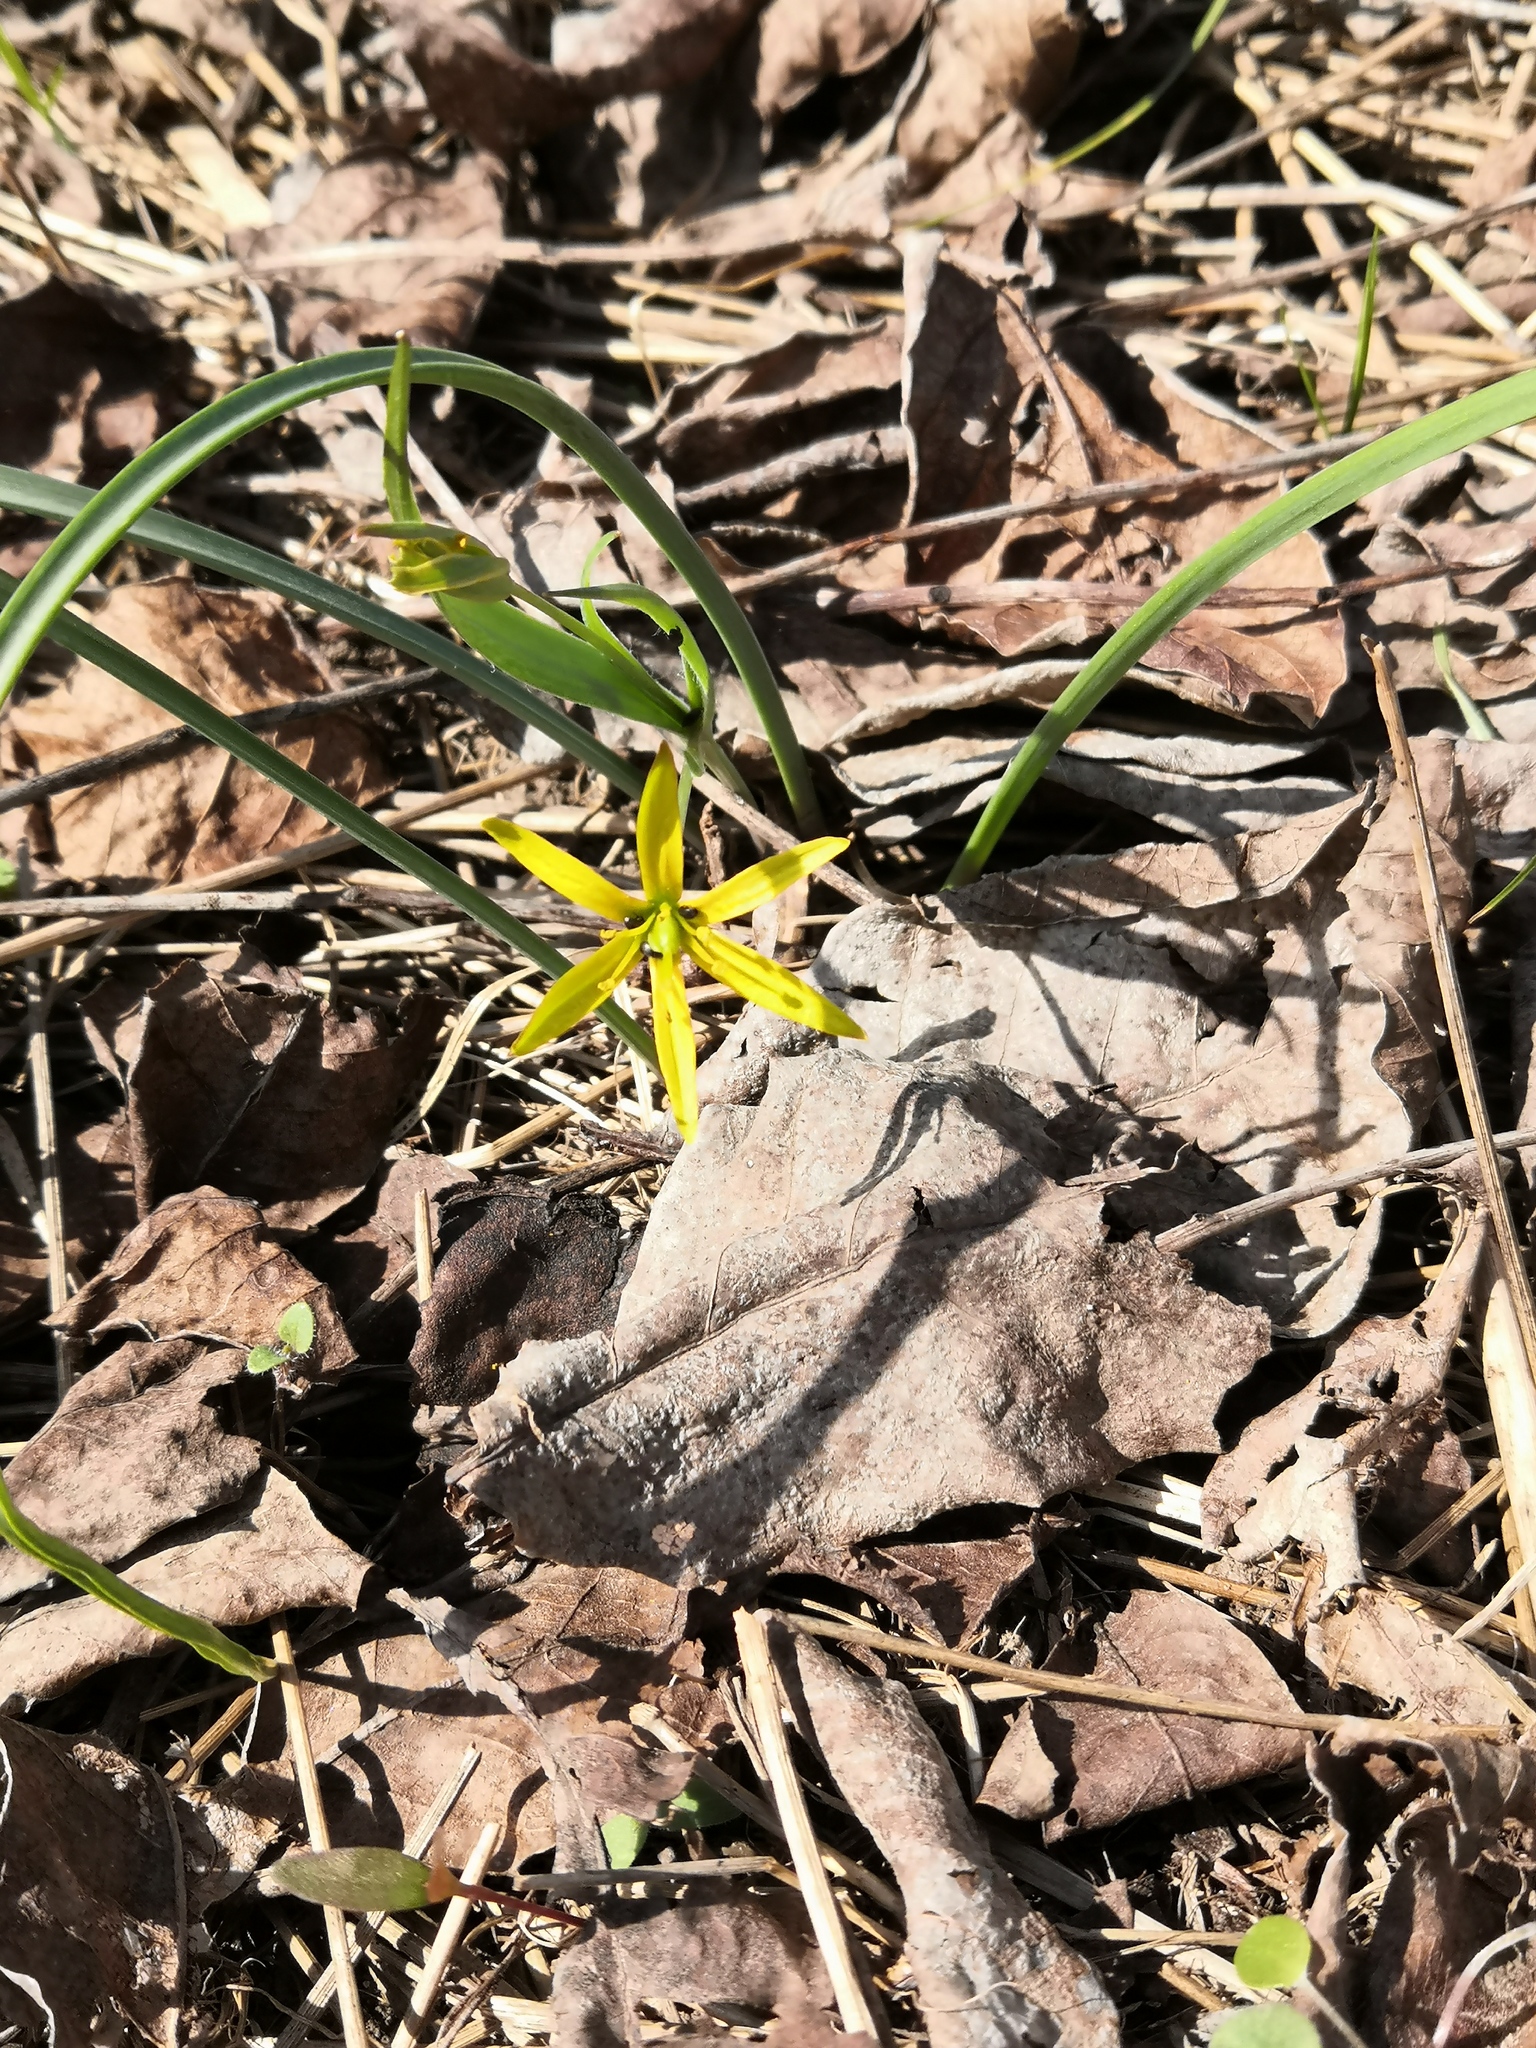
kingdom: Plantae
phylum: Tracheophyta
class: Liliopsida
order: Liliales
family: Liliaceae
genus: Gagea
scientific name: Gagea pratensis
